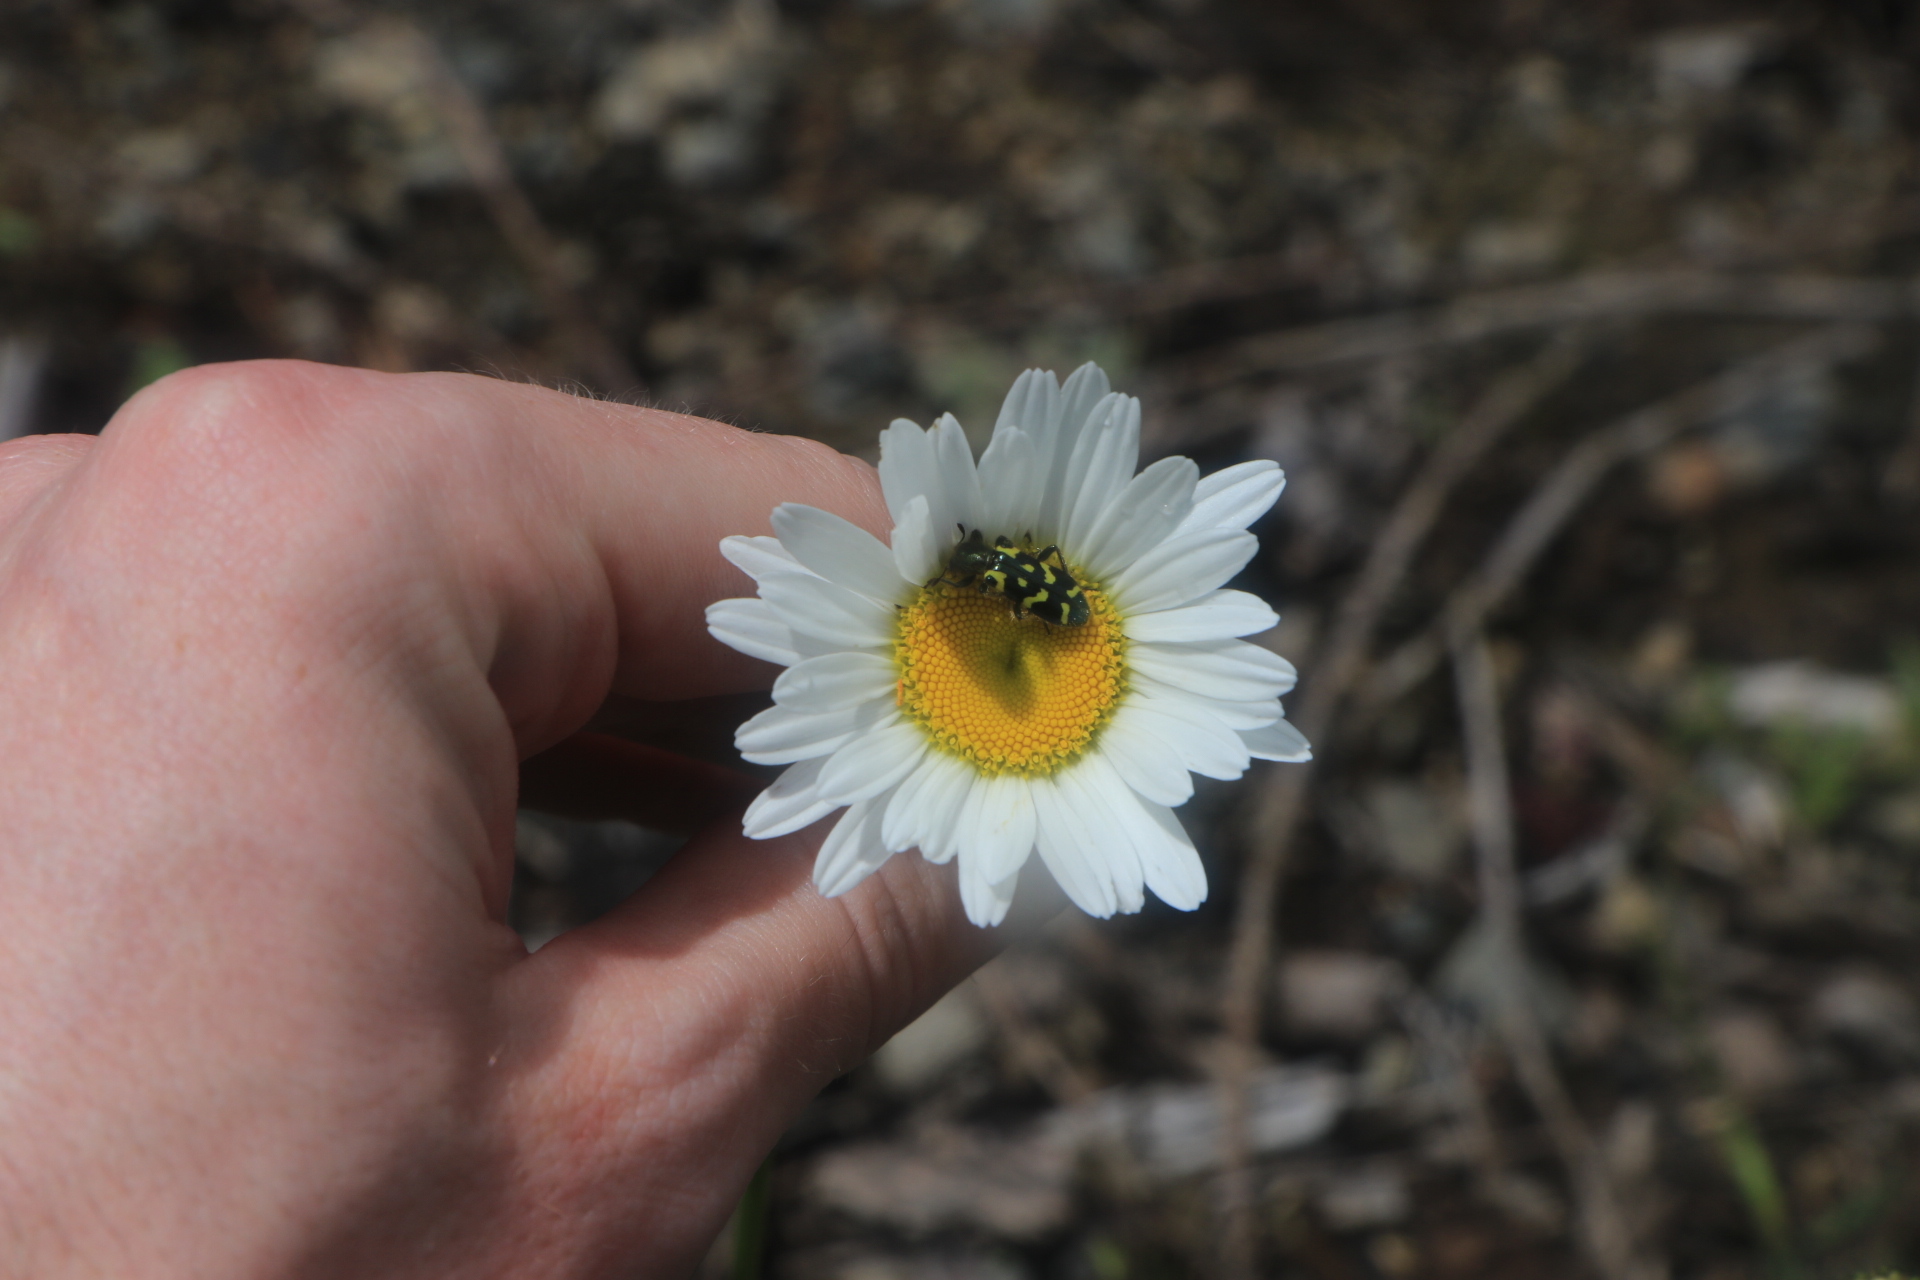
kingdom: Animalia
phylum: Arthropoda
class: Insecta
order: Coleoptera
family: Cleridae
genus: Trichodes
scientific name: Trichodes ornatus
